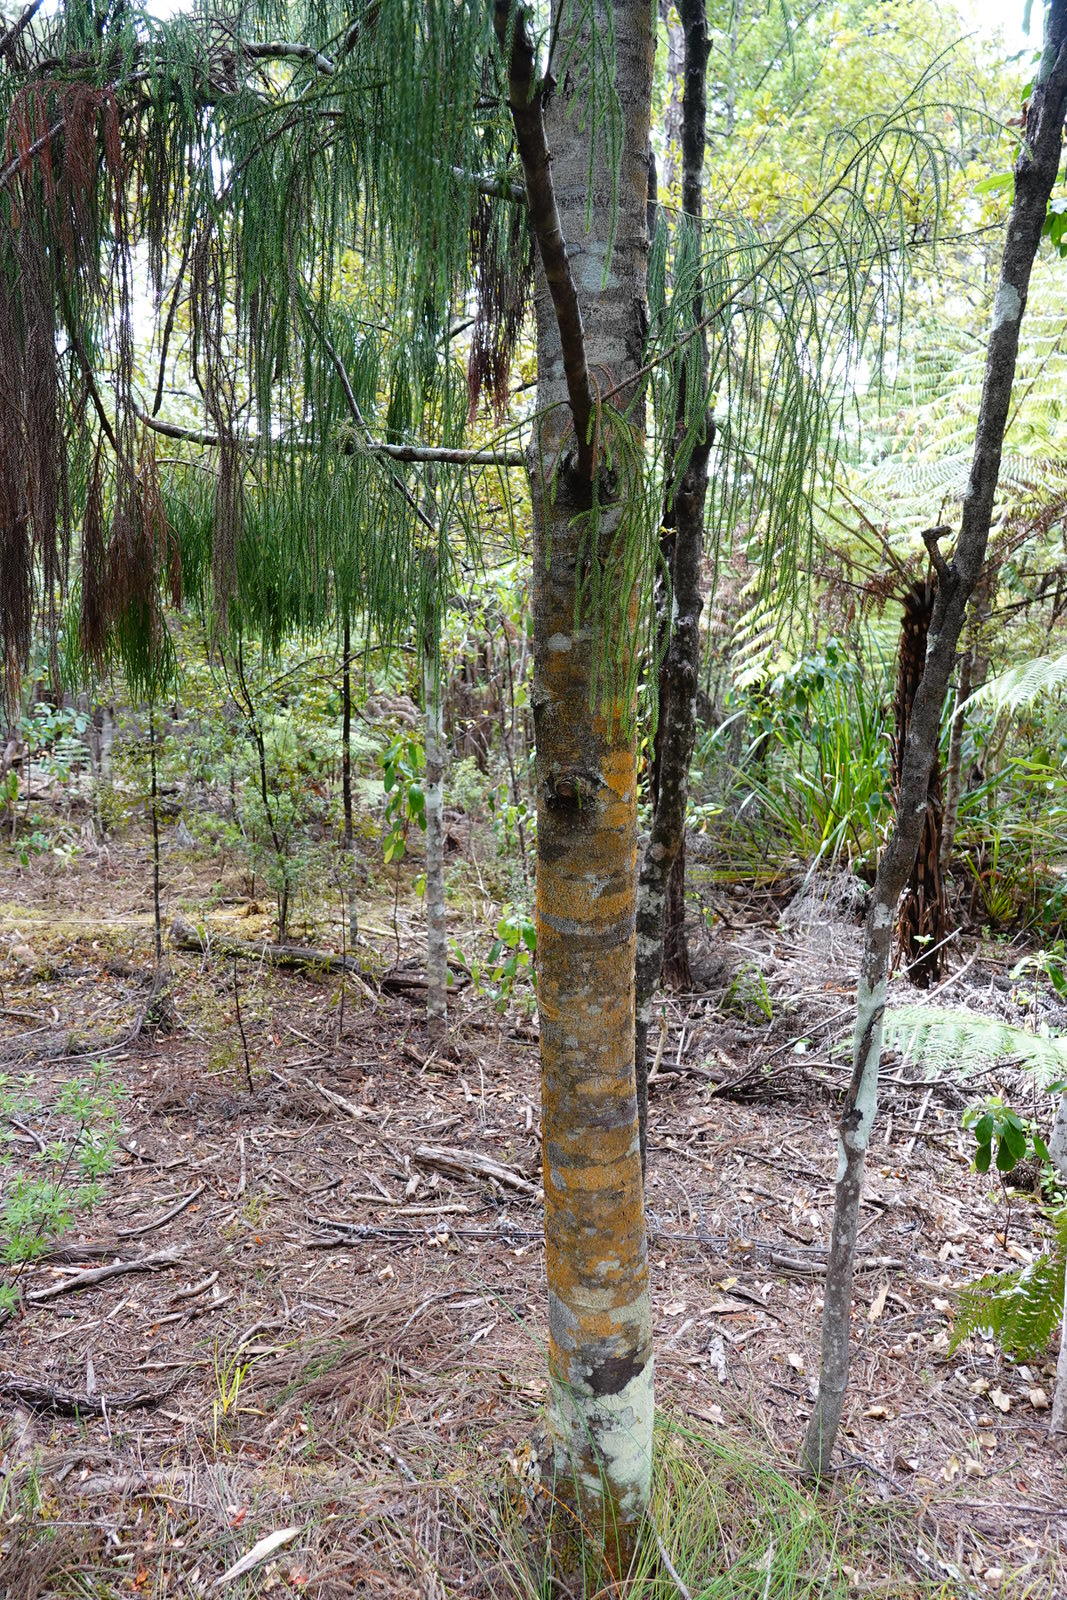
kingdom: Plantae
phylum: Tracheophyta
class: Pinopsida
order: Pinales
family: Podocarpaceae
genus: Dacrydium
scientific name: Dacrydium cupressinum
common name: Red pine
